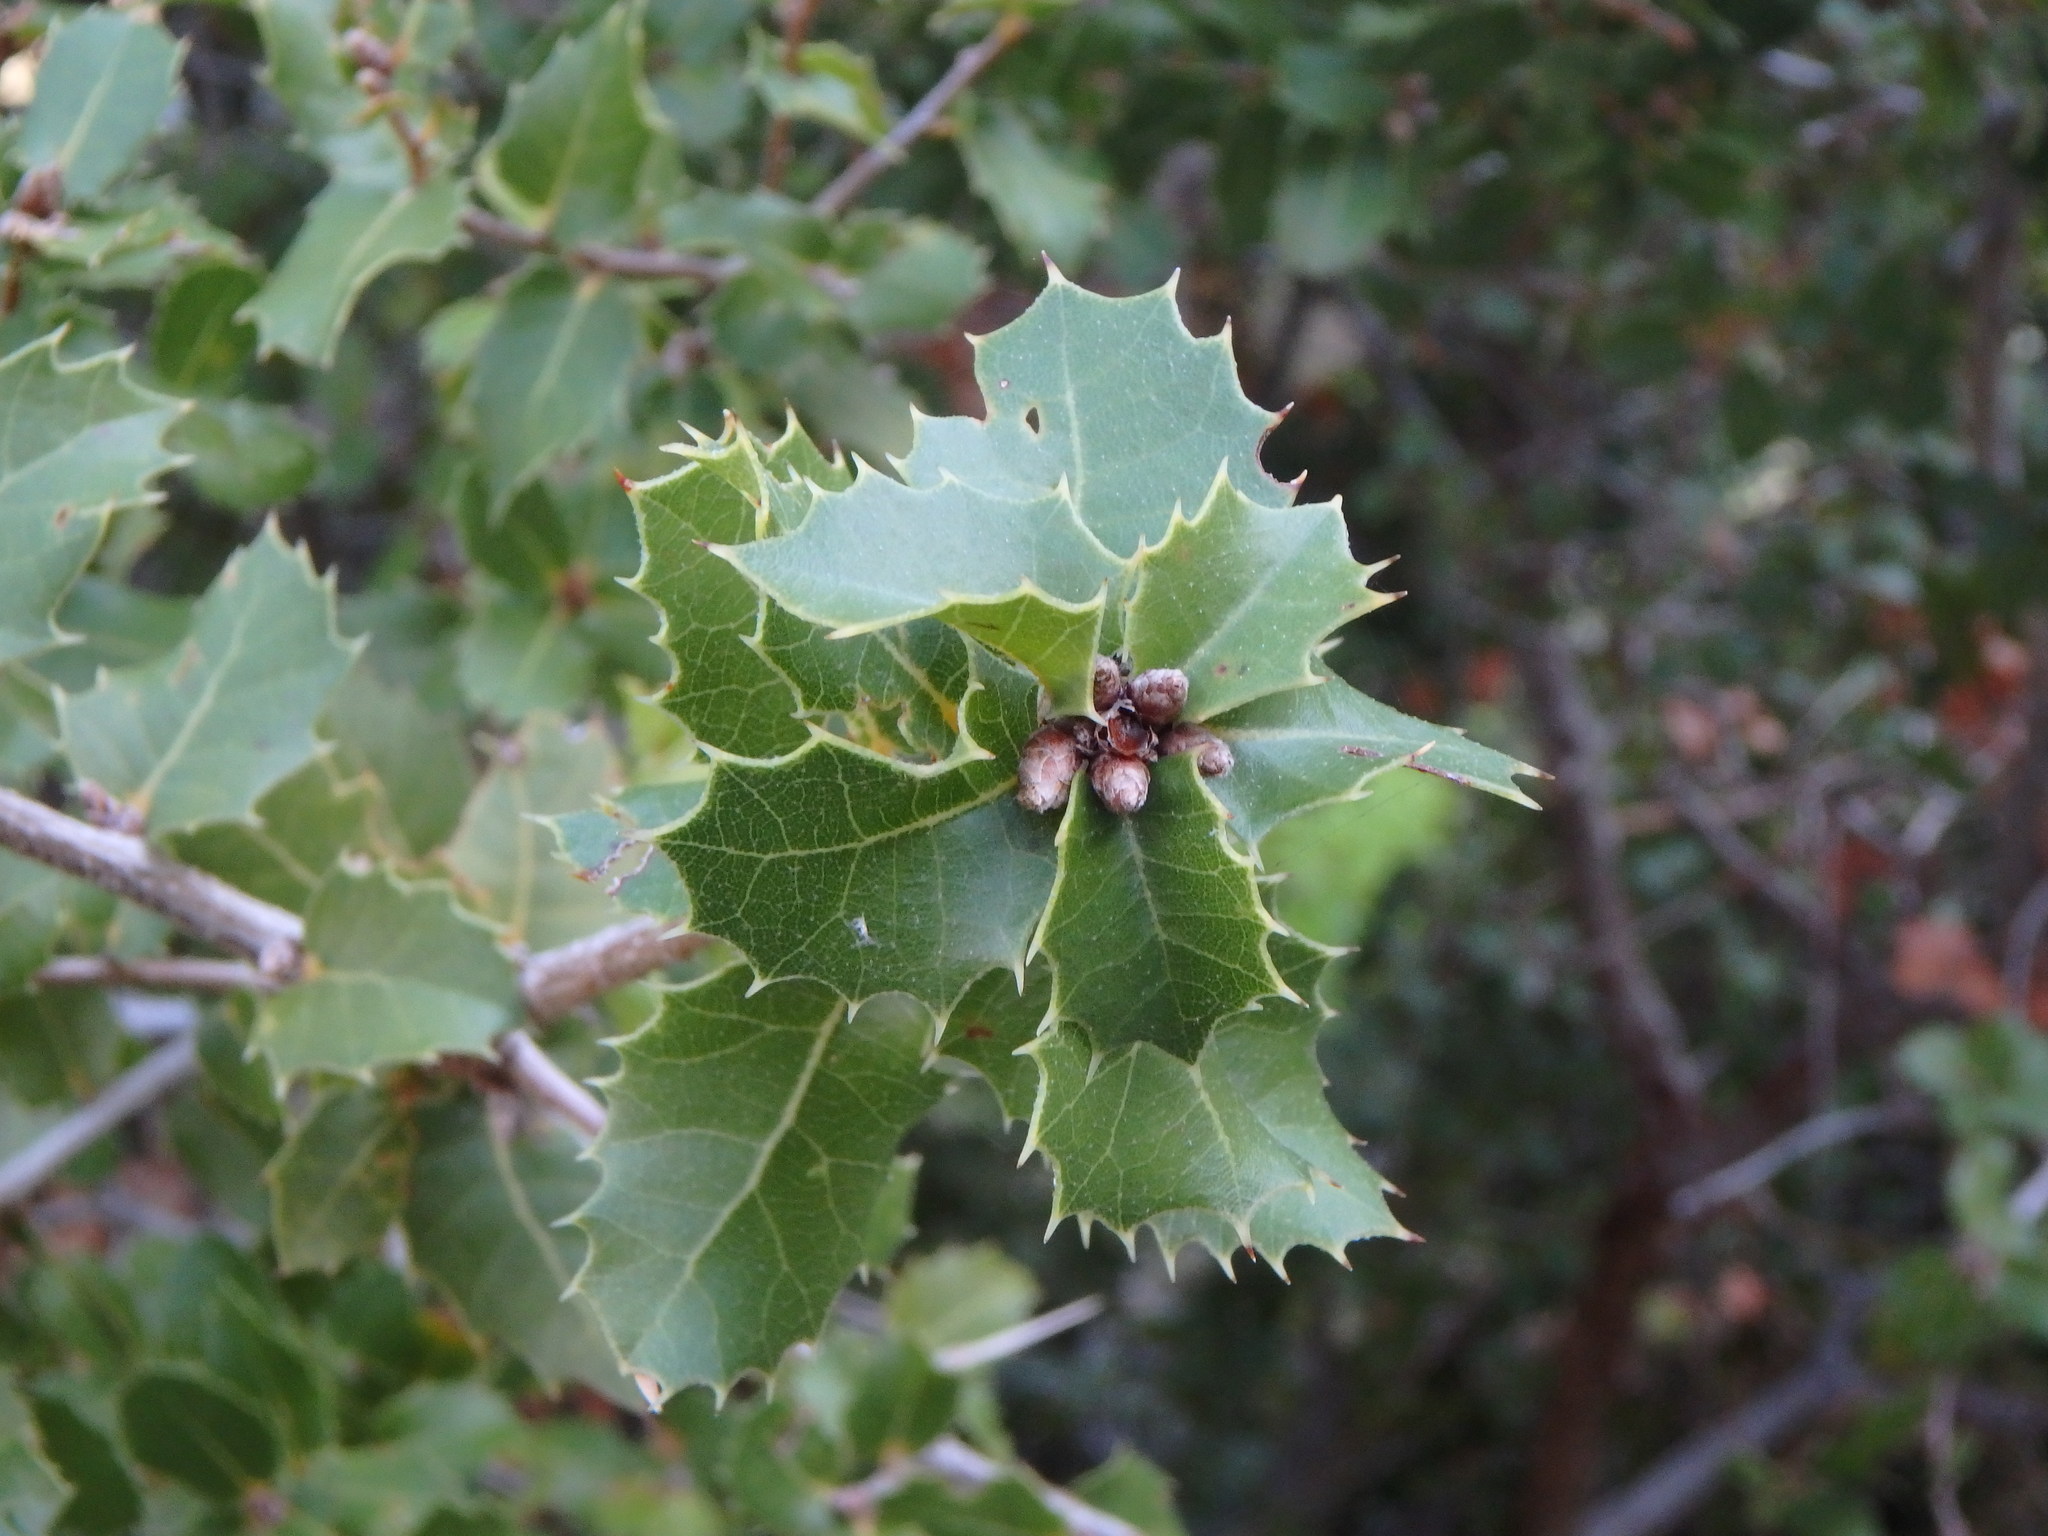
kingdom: Plantae
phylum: Tracheophyta
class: Magnoliopsida
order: Fagales
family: Fagaceae
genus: Quercus
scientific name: Quercus coccifera
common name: Kermes oak
